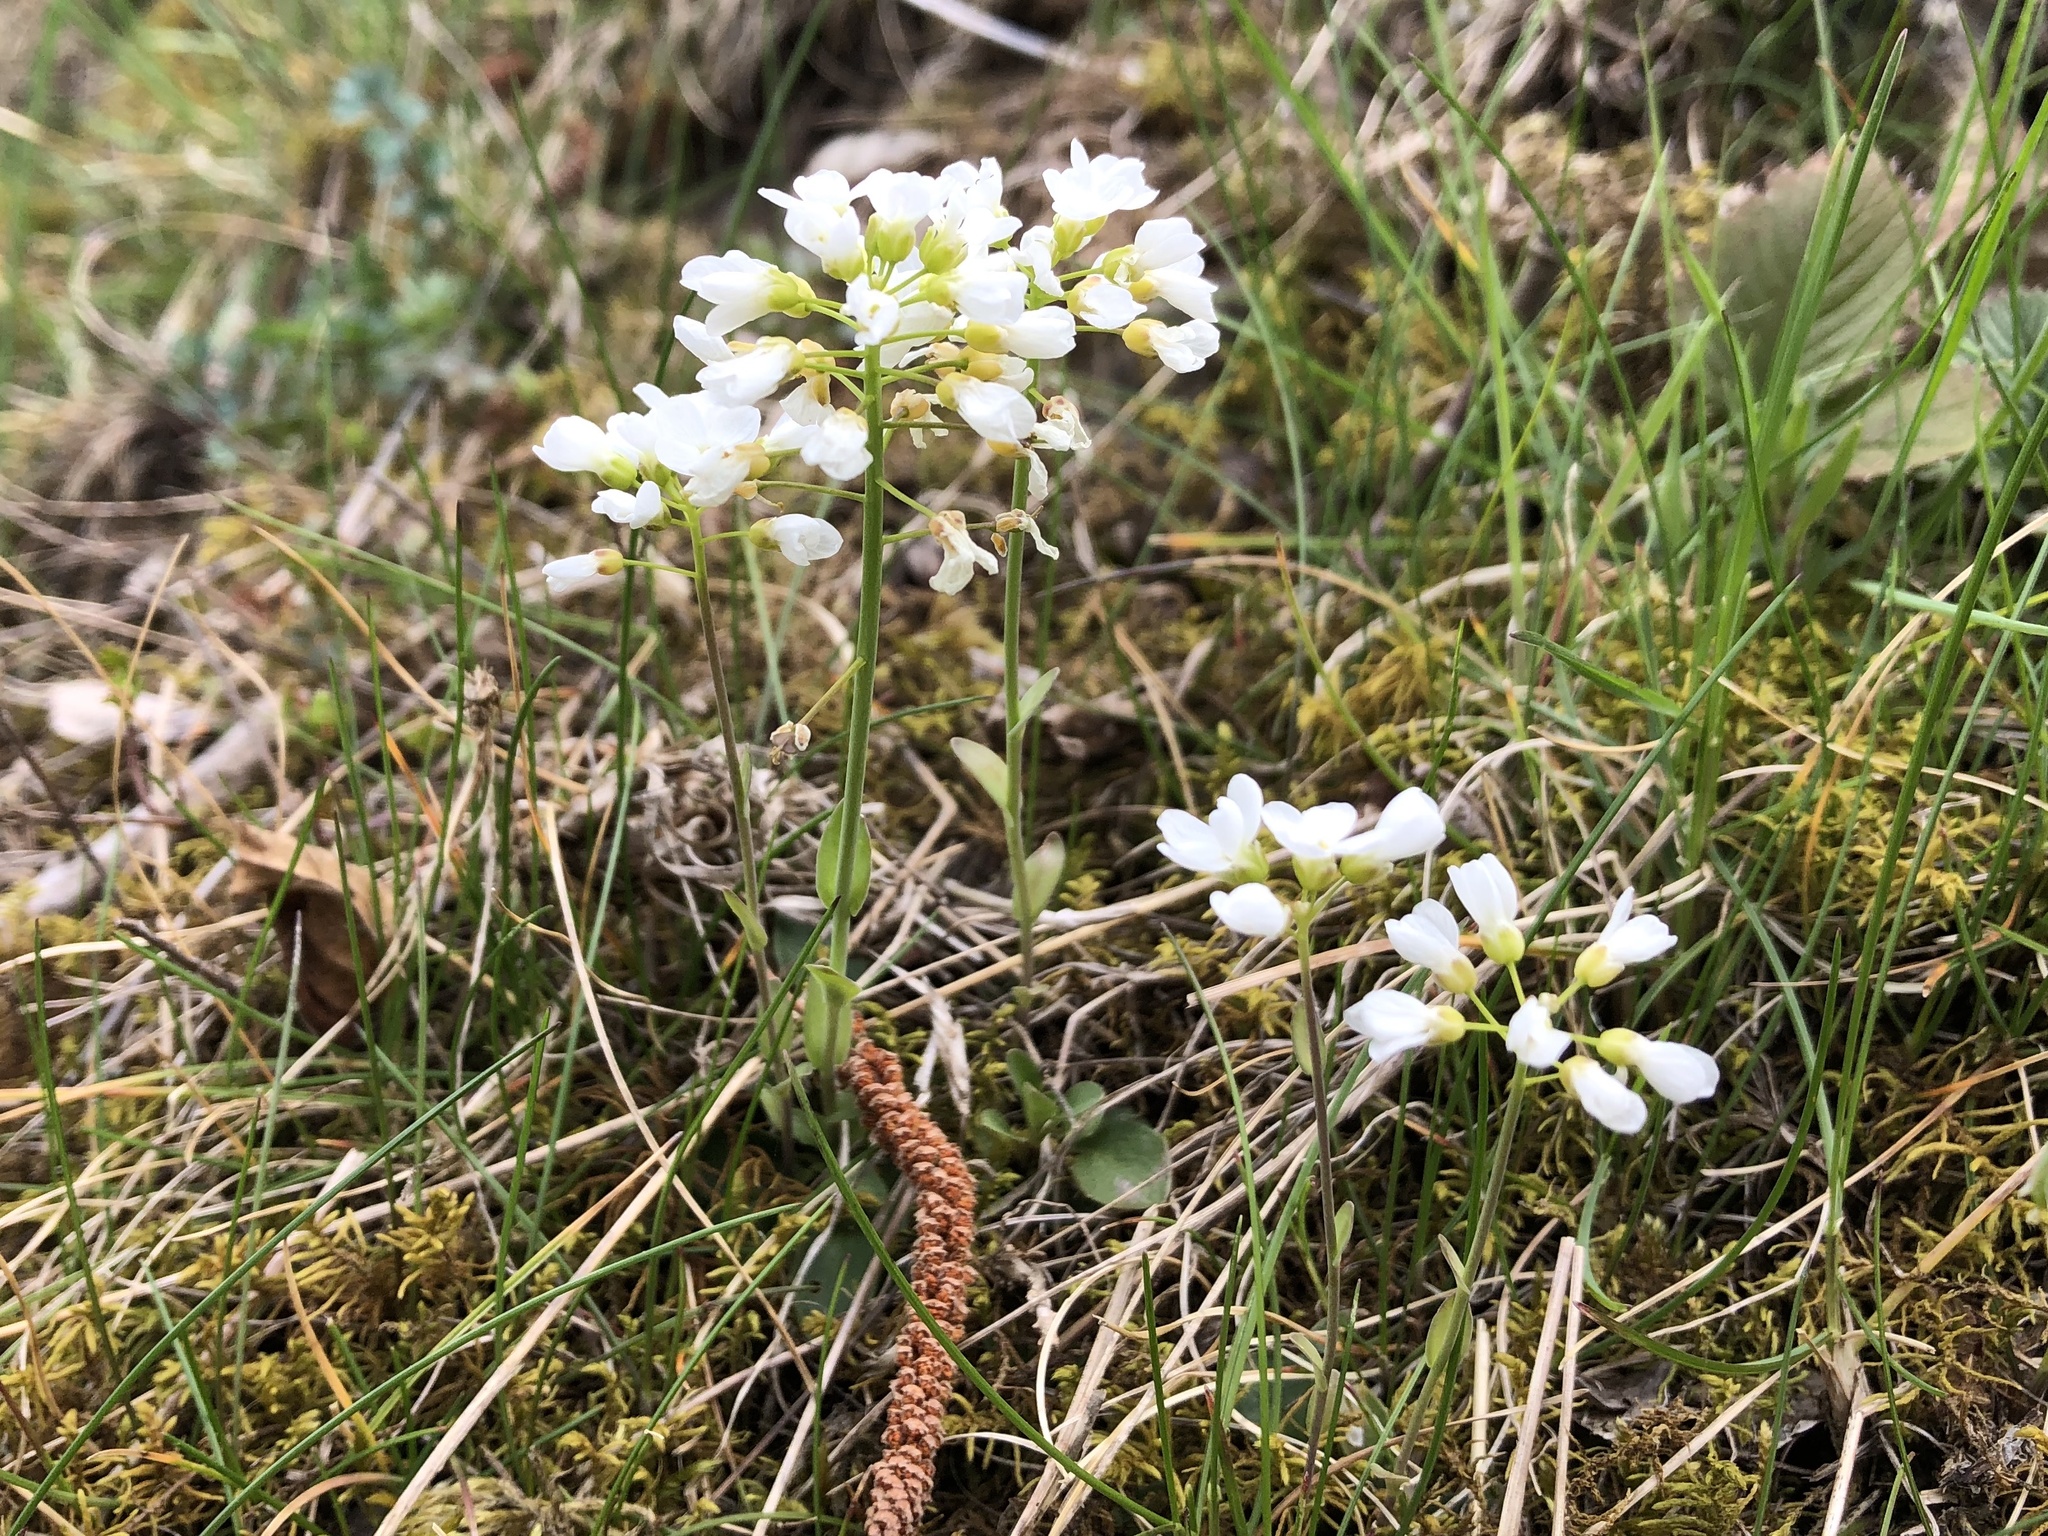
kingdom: Plantae
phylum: Tracheophyta
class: Magnoliopsida
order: Brassicales
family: Brassicaceae
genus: Noccaea
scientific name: Noccaea montana
